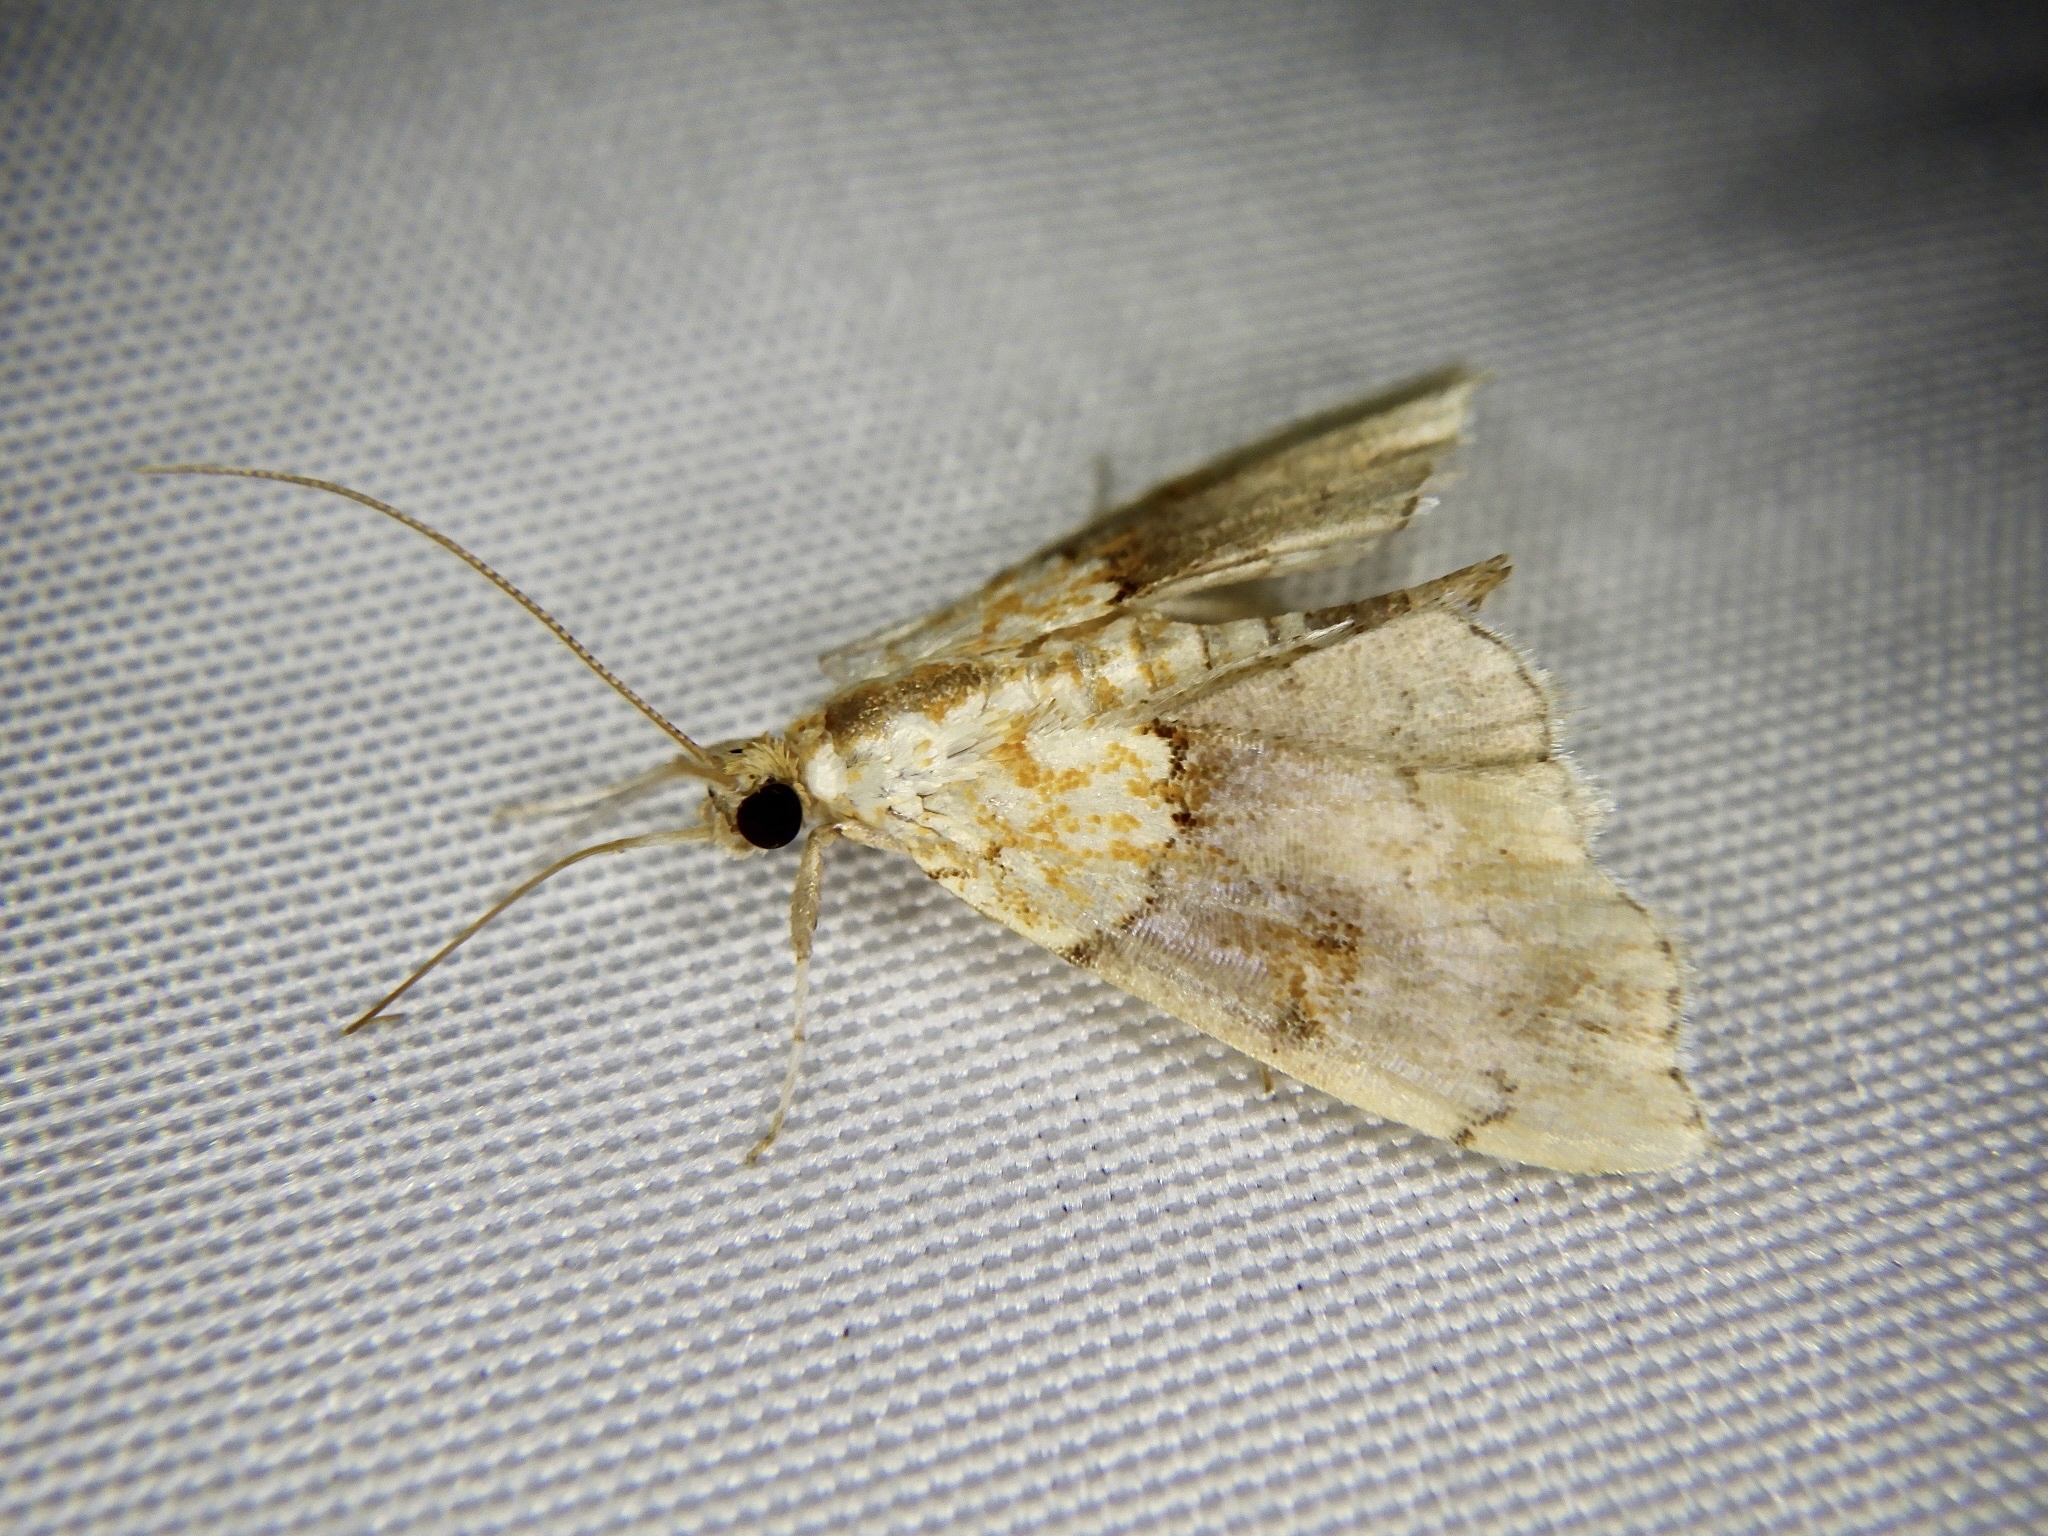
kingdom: Animalia
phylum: Arthropoda
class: Insecta
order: Lepidoptera
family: Crambidae
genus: Agrotera
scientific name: Agrotera nemoralis
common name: Beautiful pearl
